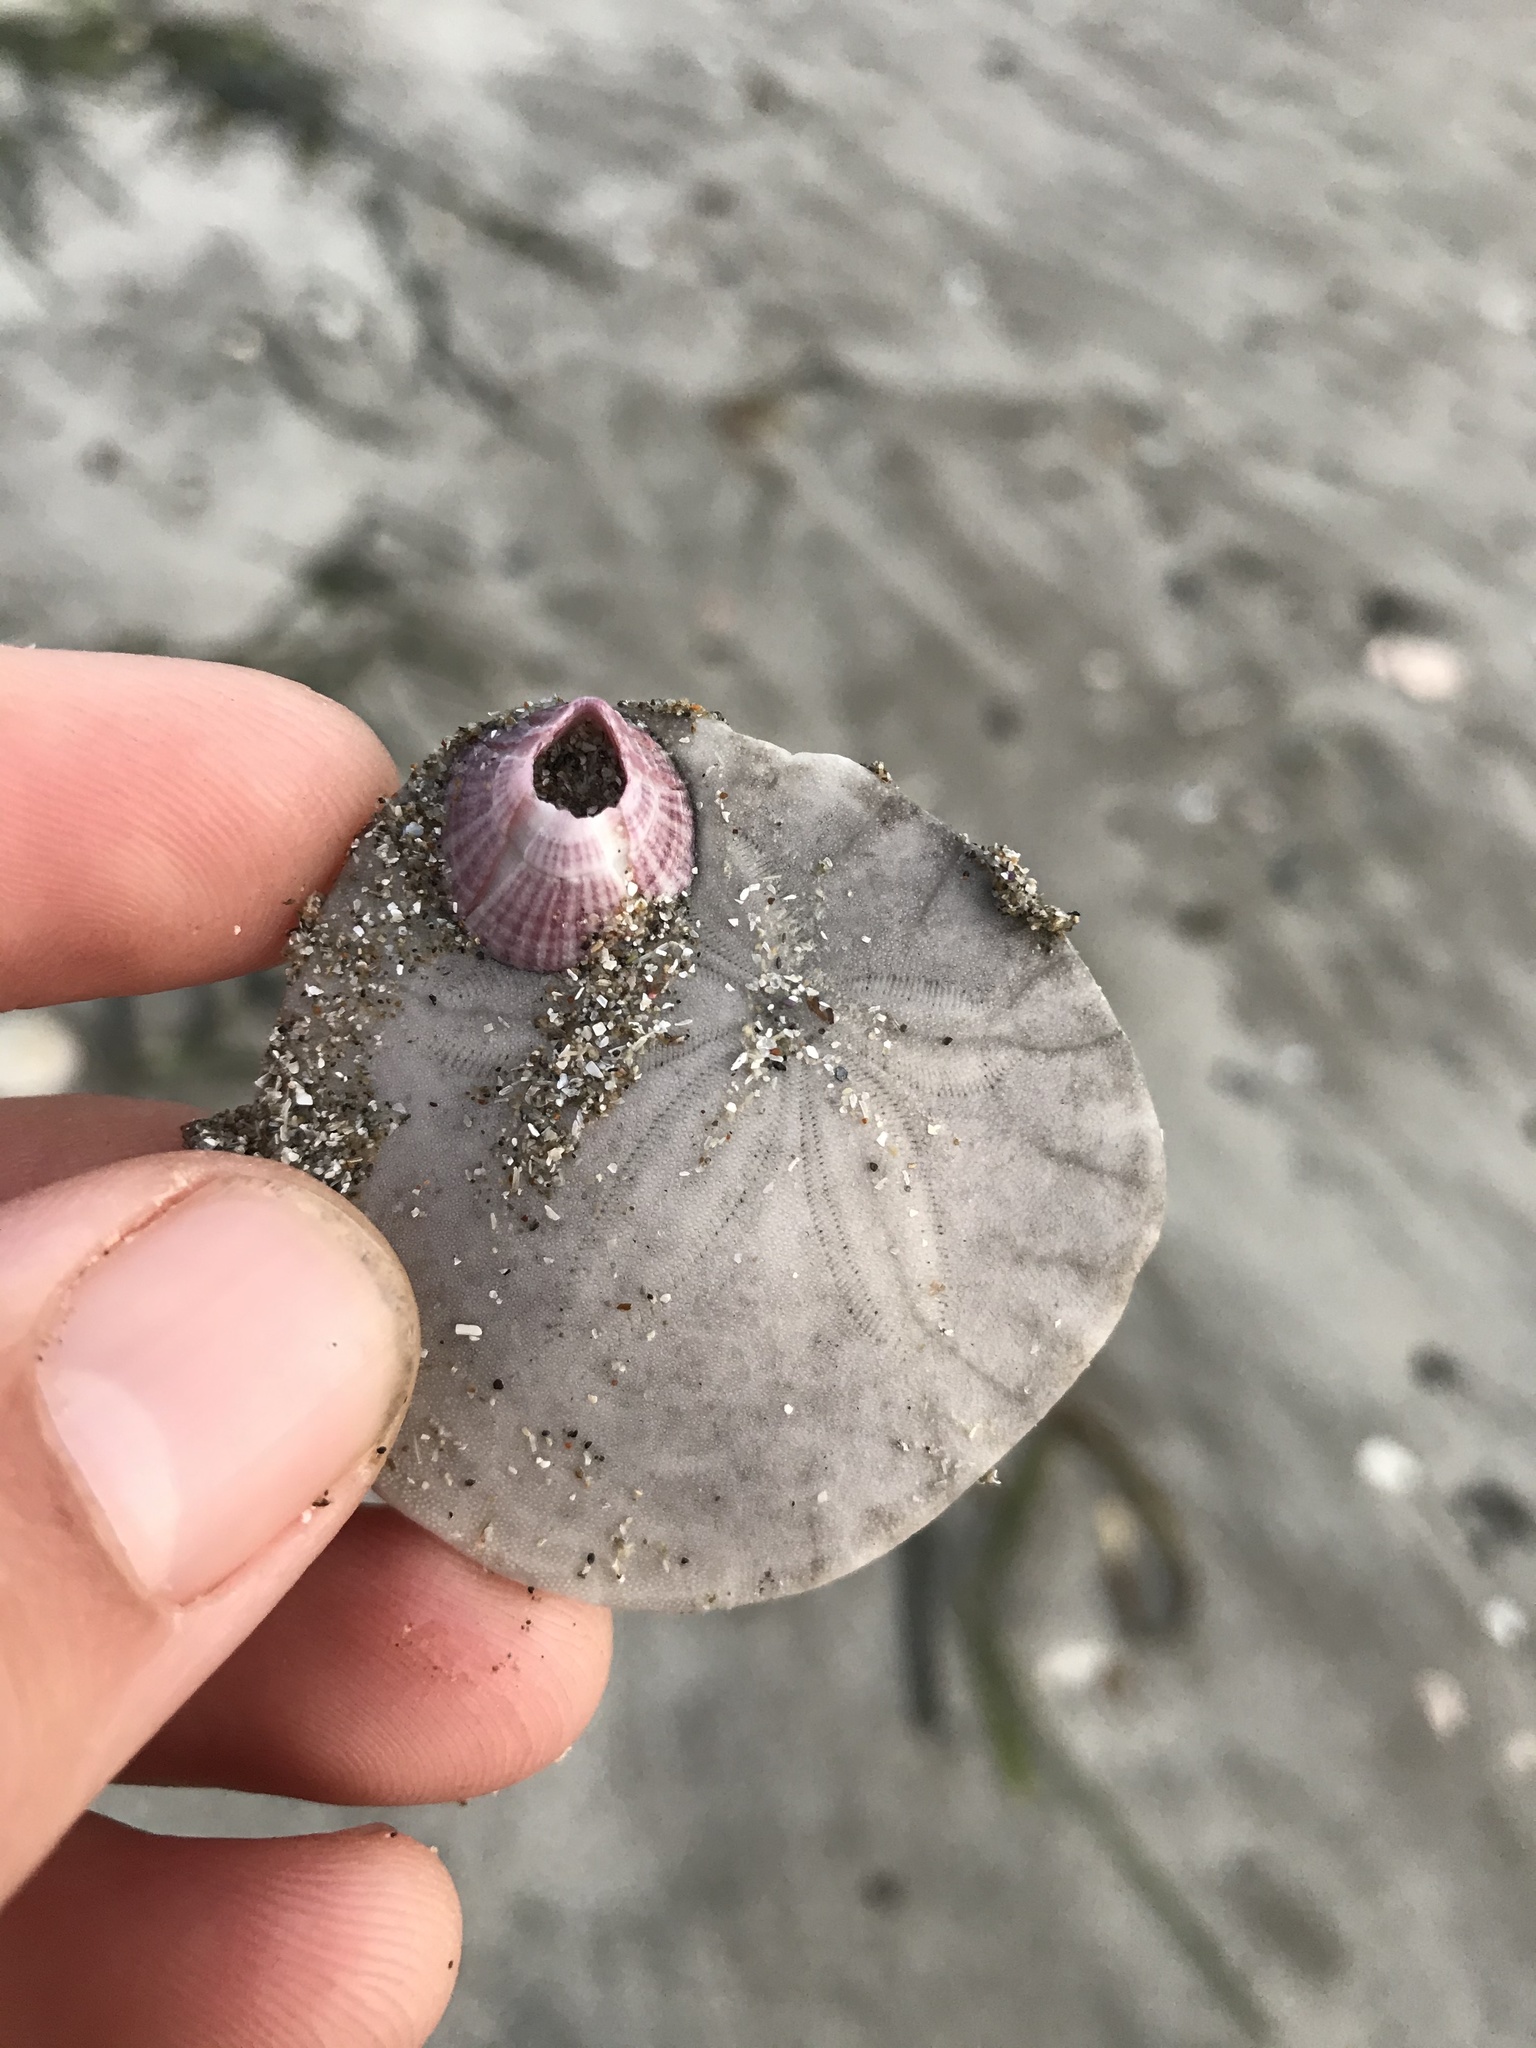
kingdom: Animalia
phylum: Echinodermata
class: Echinoidea
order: Echinolampadacea
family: Dendrasteridae
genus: Dendraster
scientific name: Dendraster excentricus
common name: Eccentric sand dollar sea urchin
